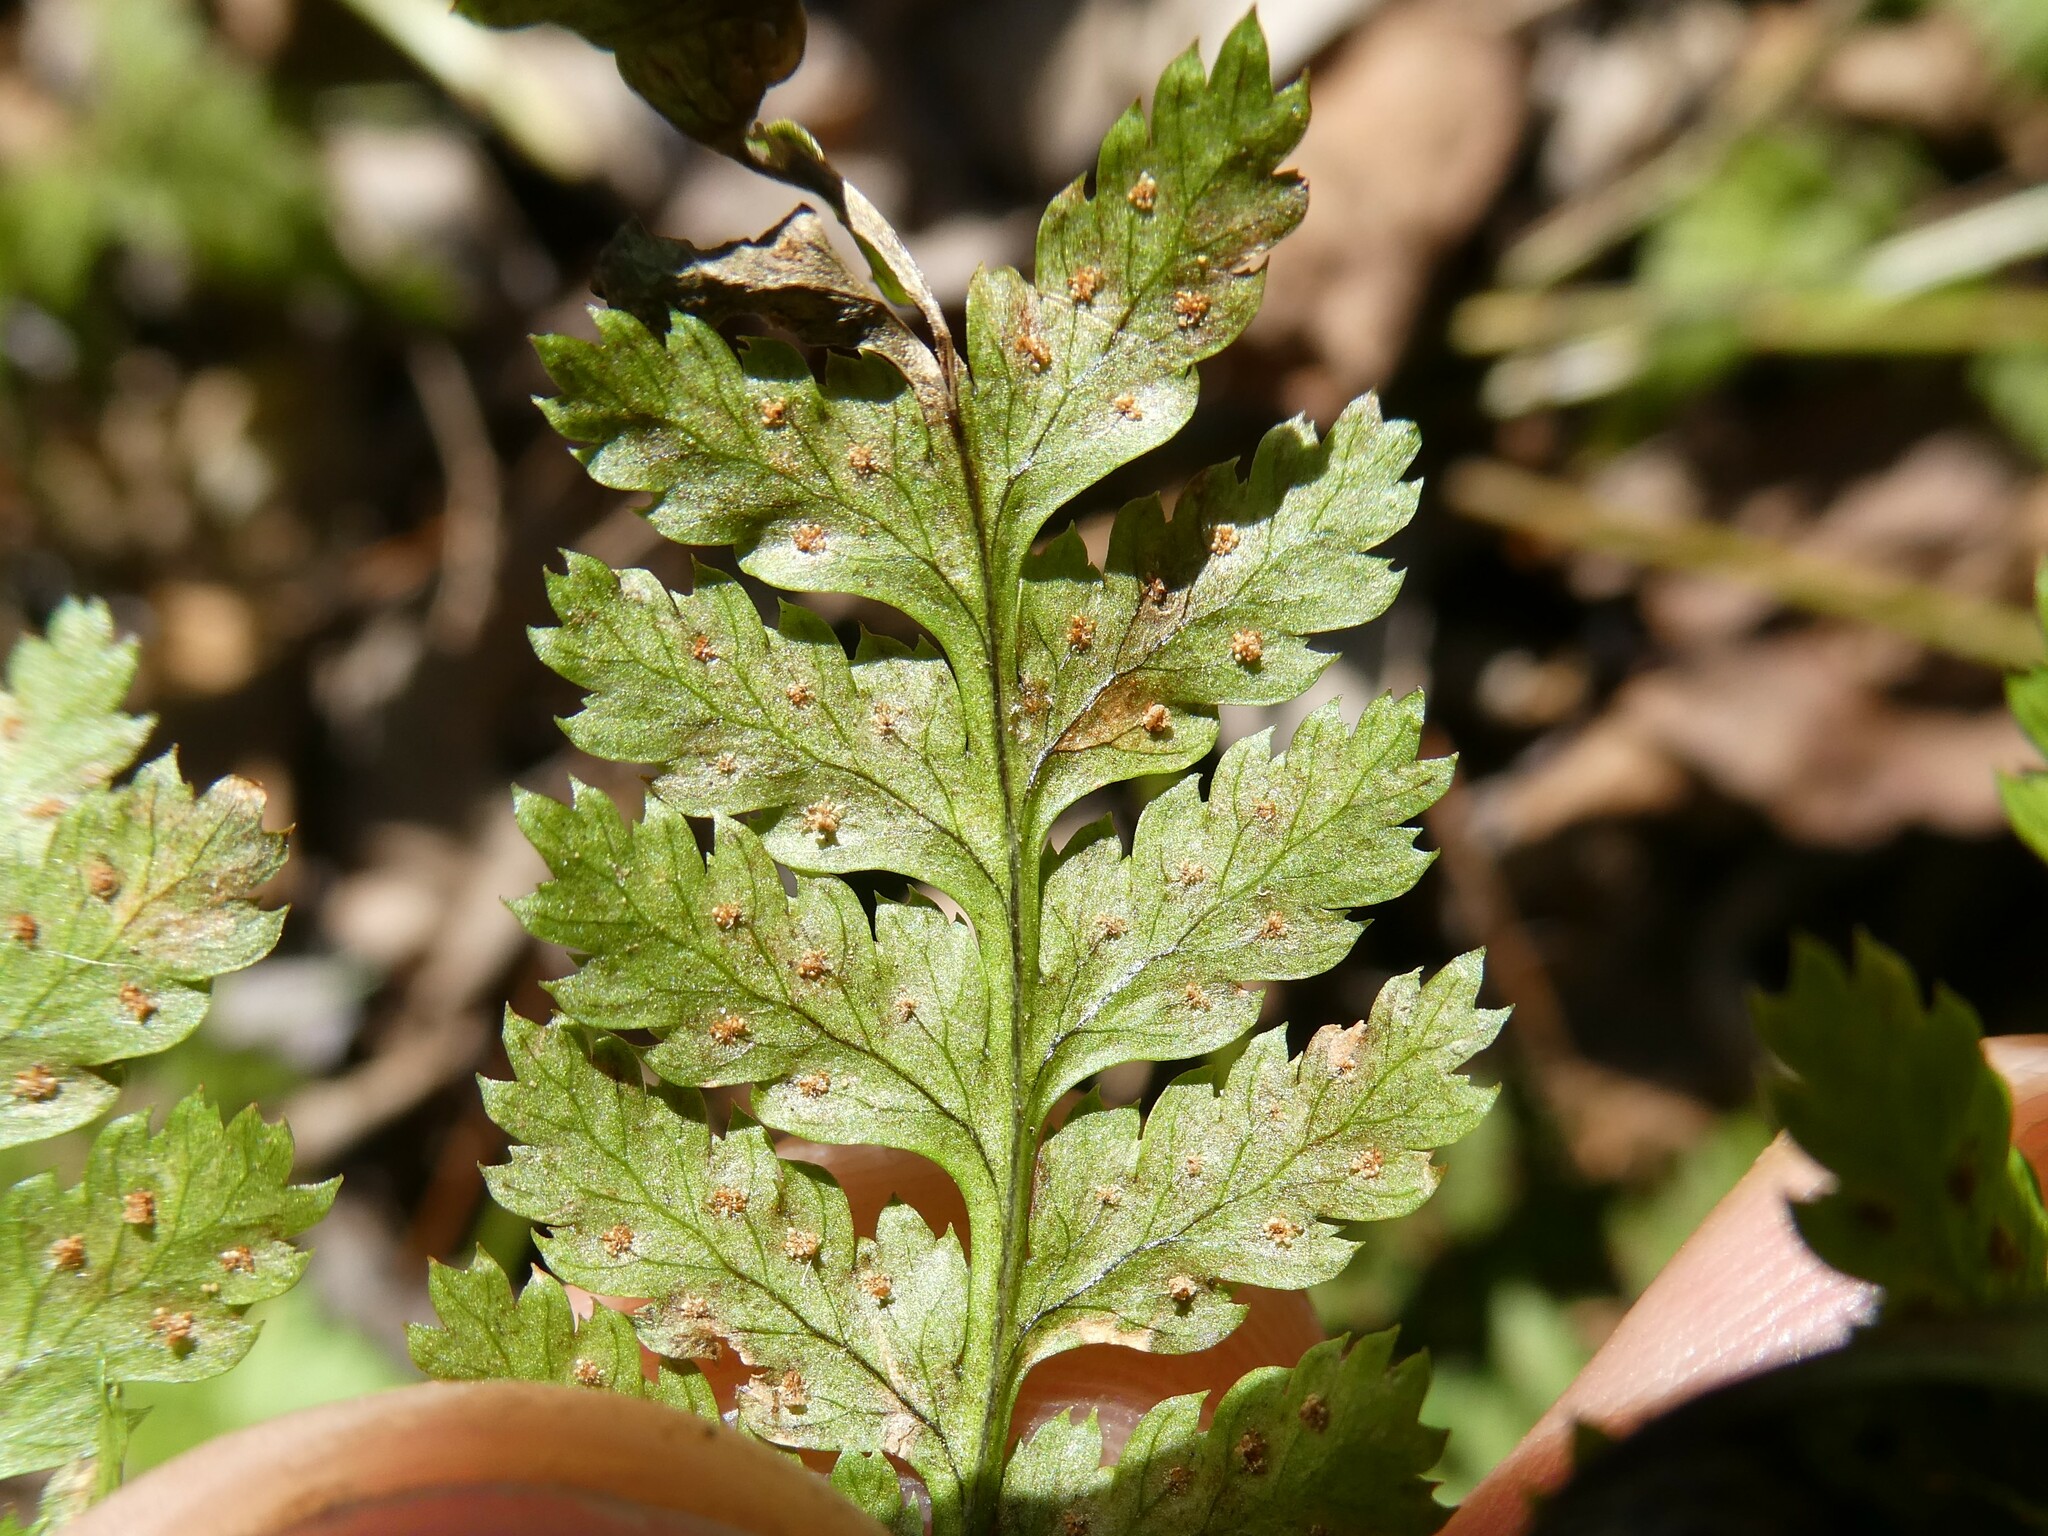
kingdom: Plantae
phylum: Tracheophyta
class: Polypodiopsida
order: Polypodiales
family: Dryopteridaceae
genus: Dryopteris
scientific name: Dryopteris intermedia
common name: Evergreen wood fern
